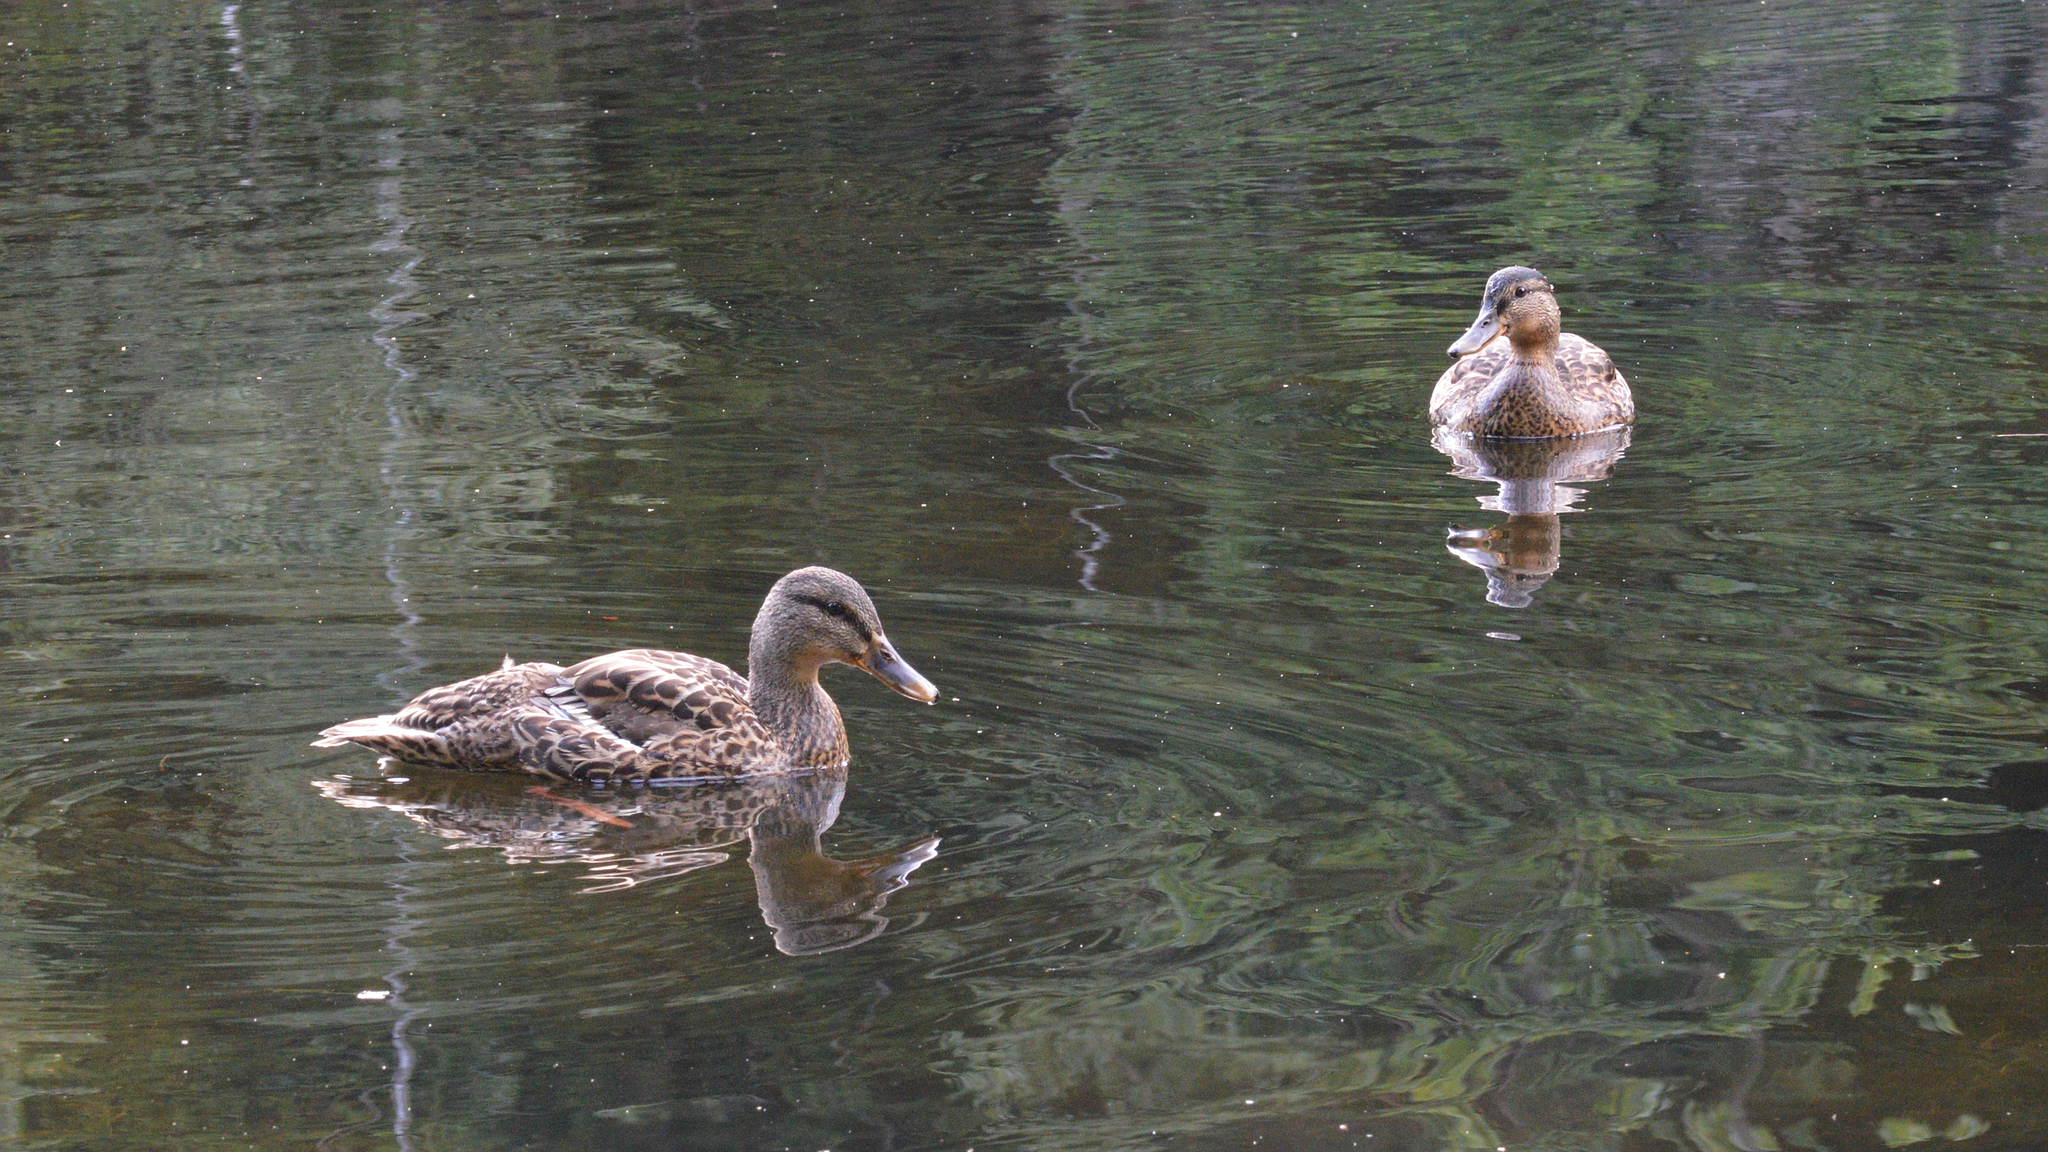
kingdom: Animalia
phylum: Chordata
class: Aves
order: Anseriformes
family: Anatidae
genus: Anas
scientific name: Anas platyrhynchos
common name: Mallard
